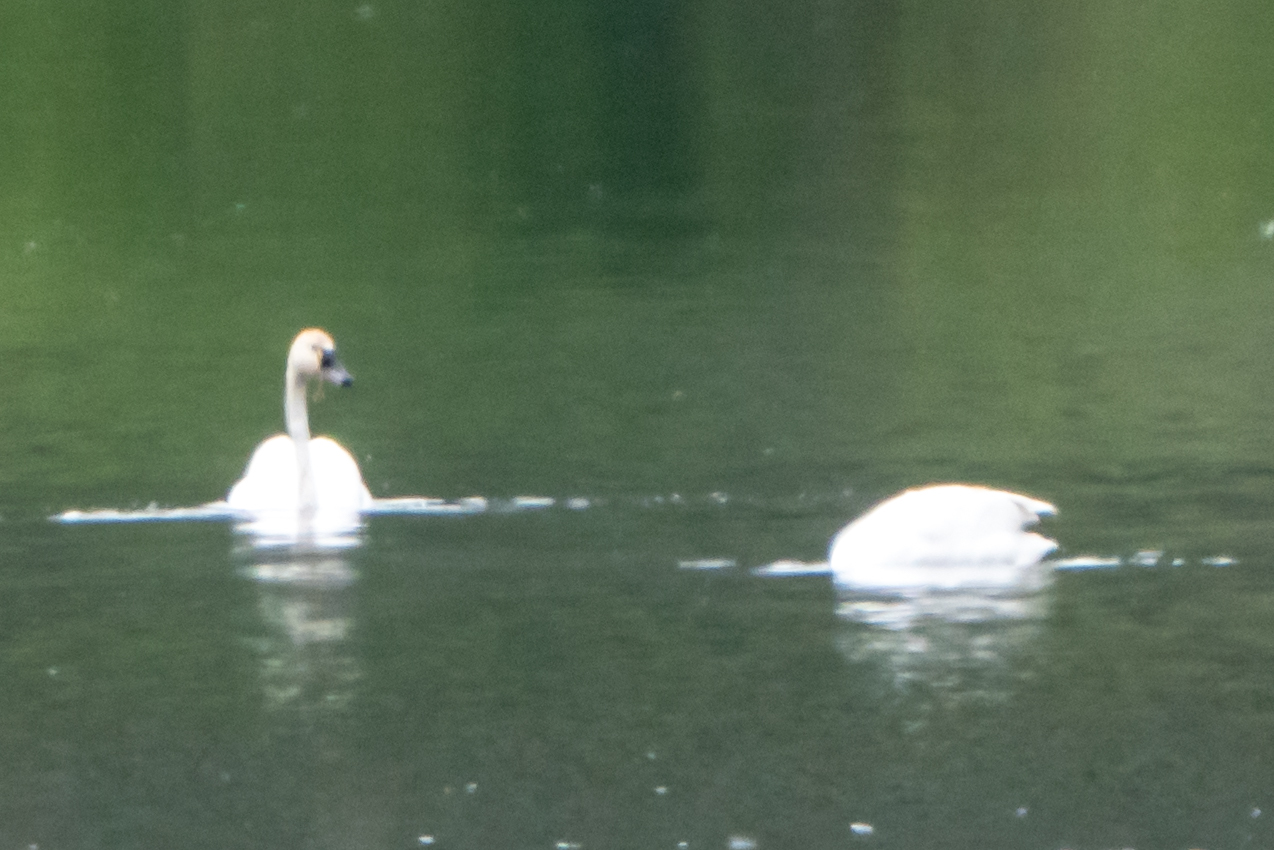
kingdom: Animalia
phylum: Chordata
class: Aves
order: Anseriformes
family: Anatidae
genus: Cygnus
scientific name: Cygnus columbianus
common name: Tundra swan
